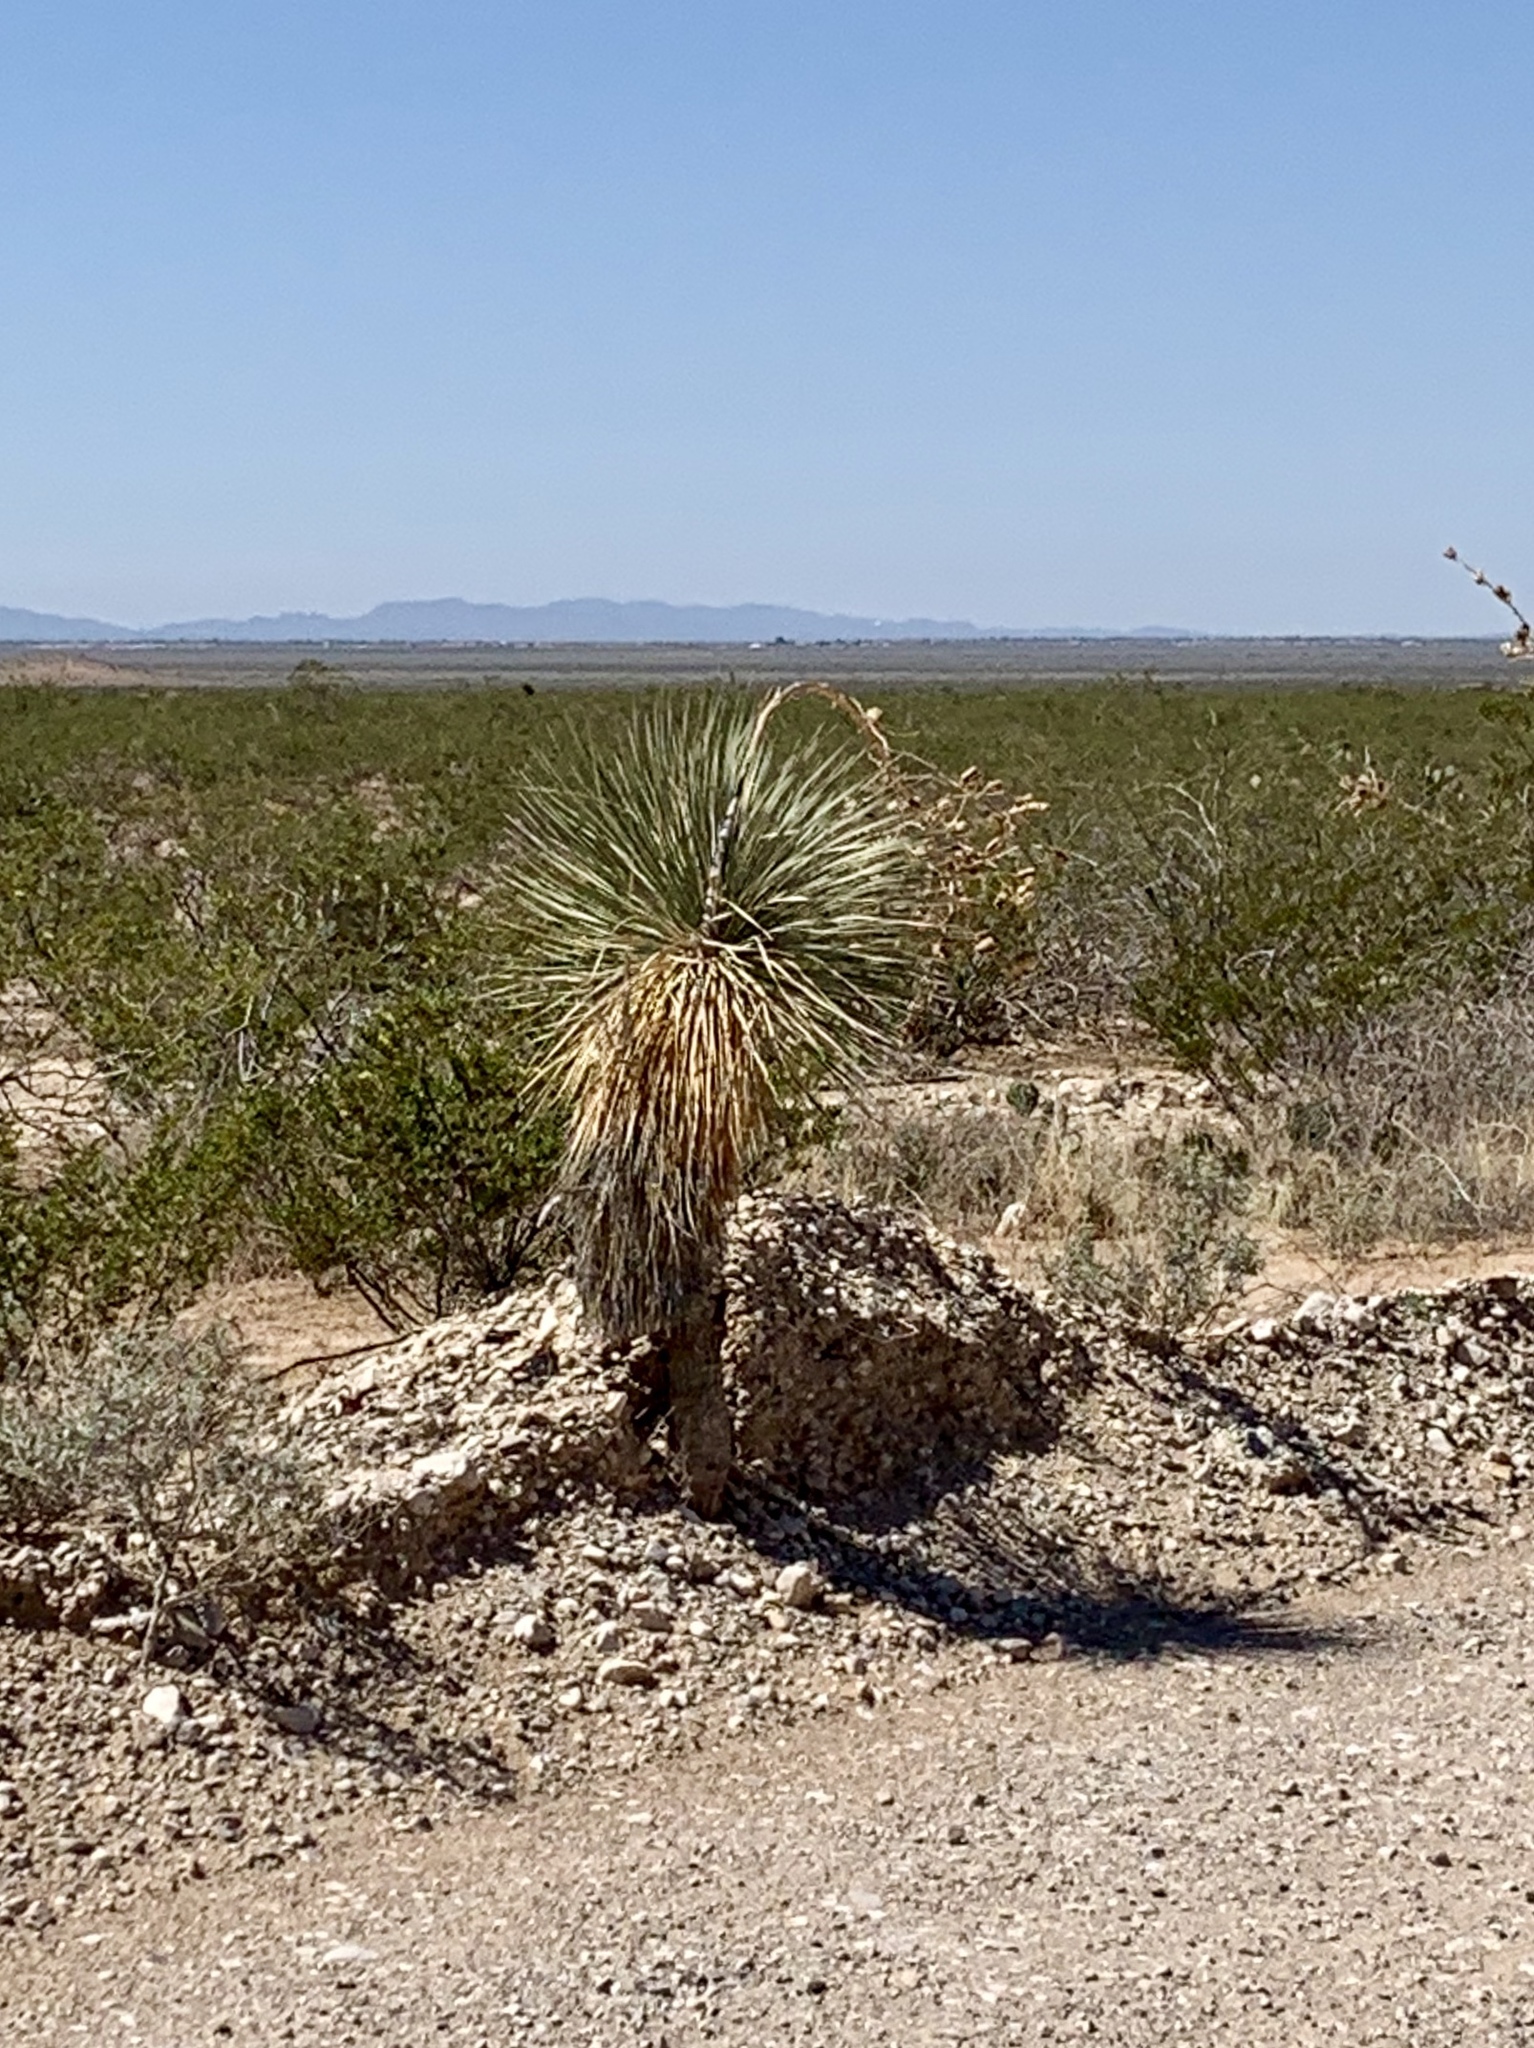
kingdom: Plantae
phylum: Tracheophyta
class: Liliopsida
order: Asparagales
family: Asparagaceae
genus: Yucca
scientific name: Yucca elata
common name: Palmella
